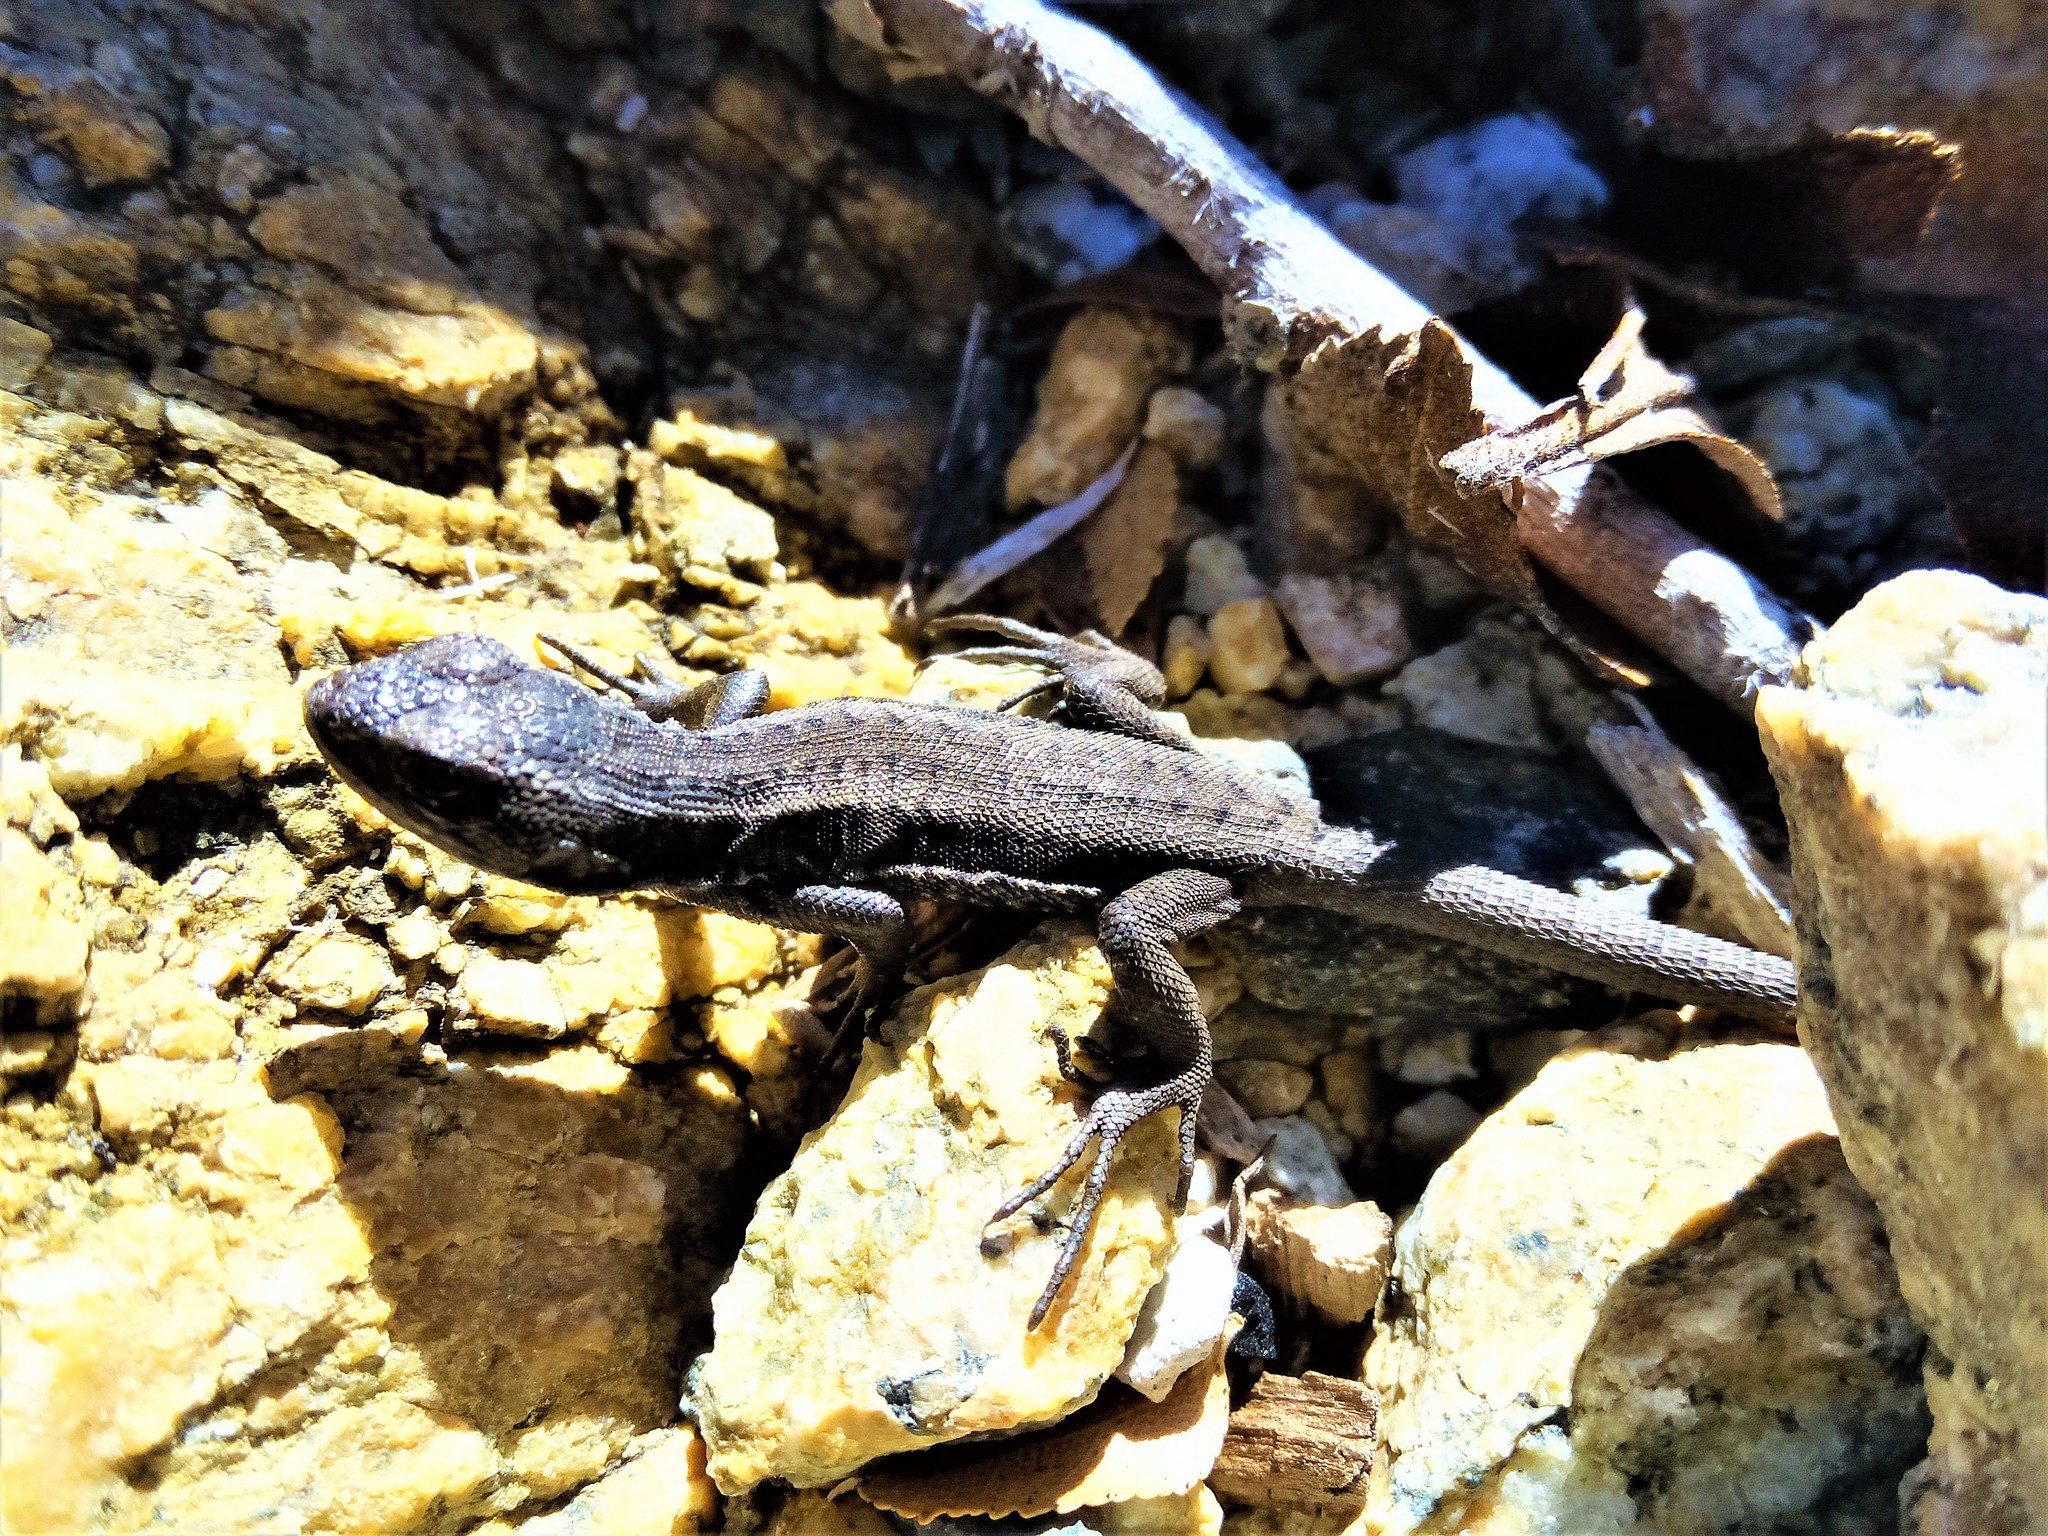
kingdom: Animalia
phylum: Chordata
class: Squamata
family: Liolaemidae
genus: Liolaemus
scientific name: Liolaemus bibronii
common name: Bibron's tree iguana
